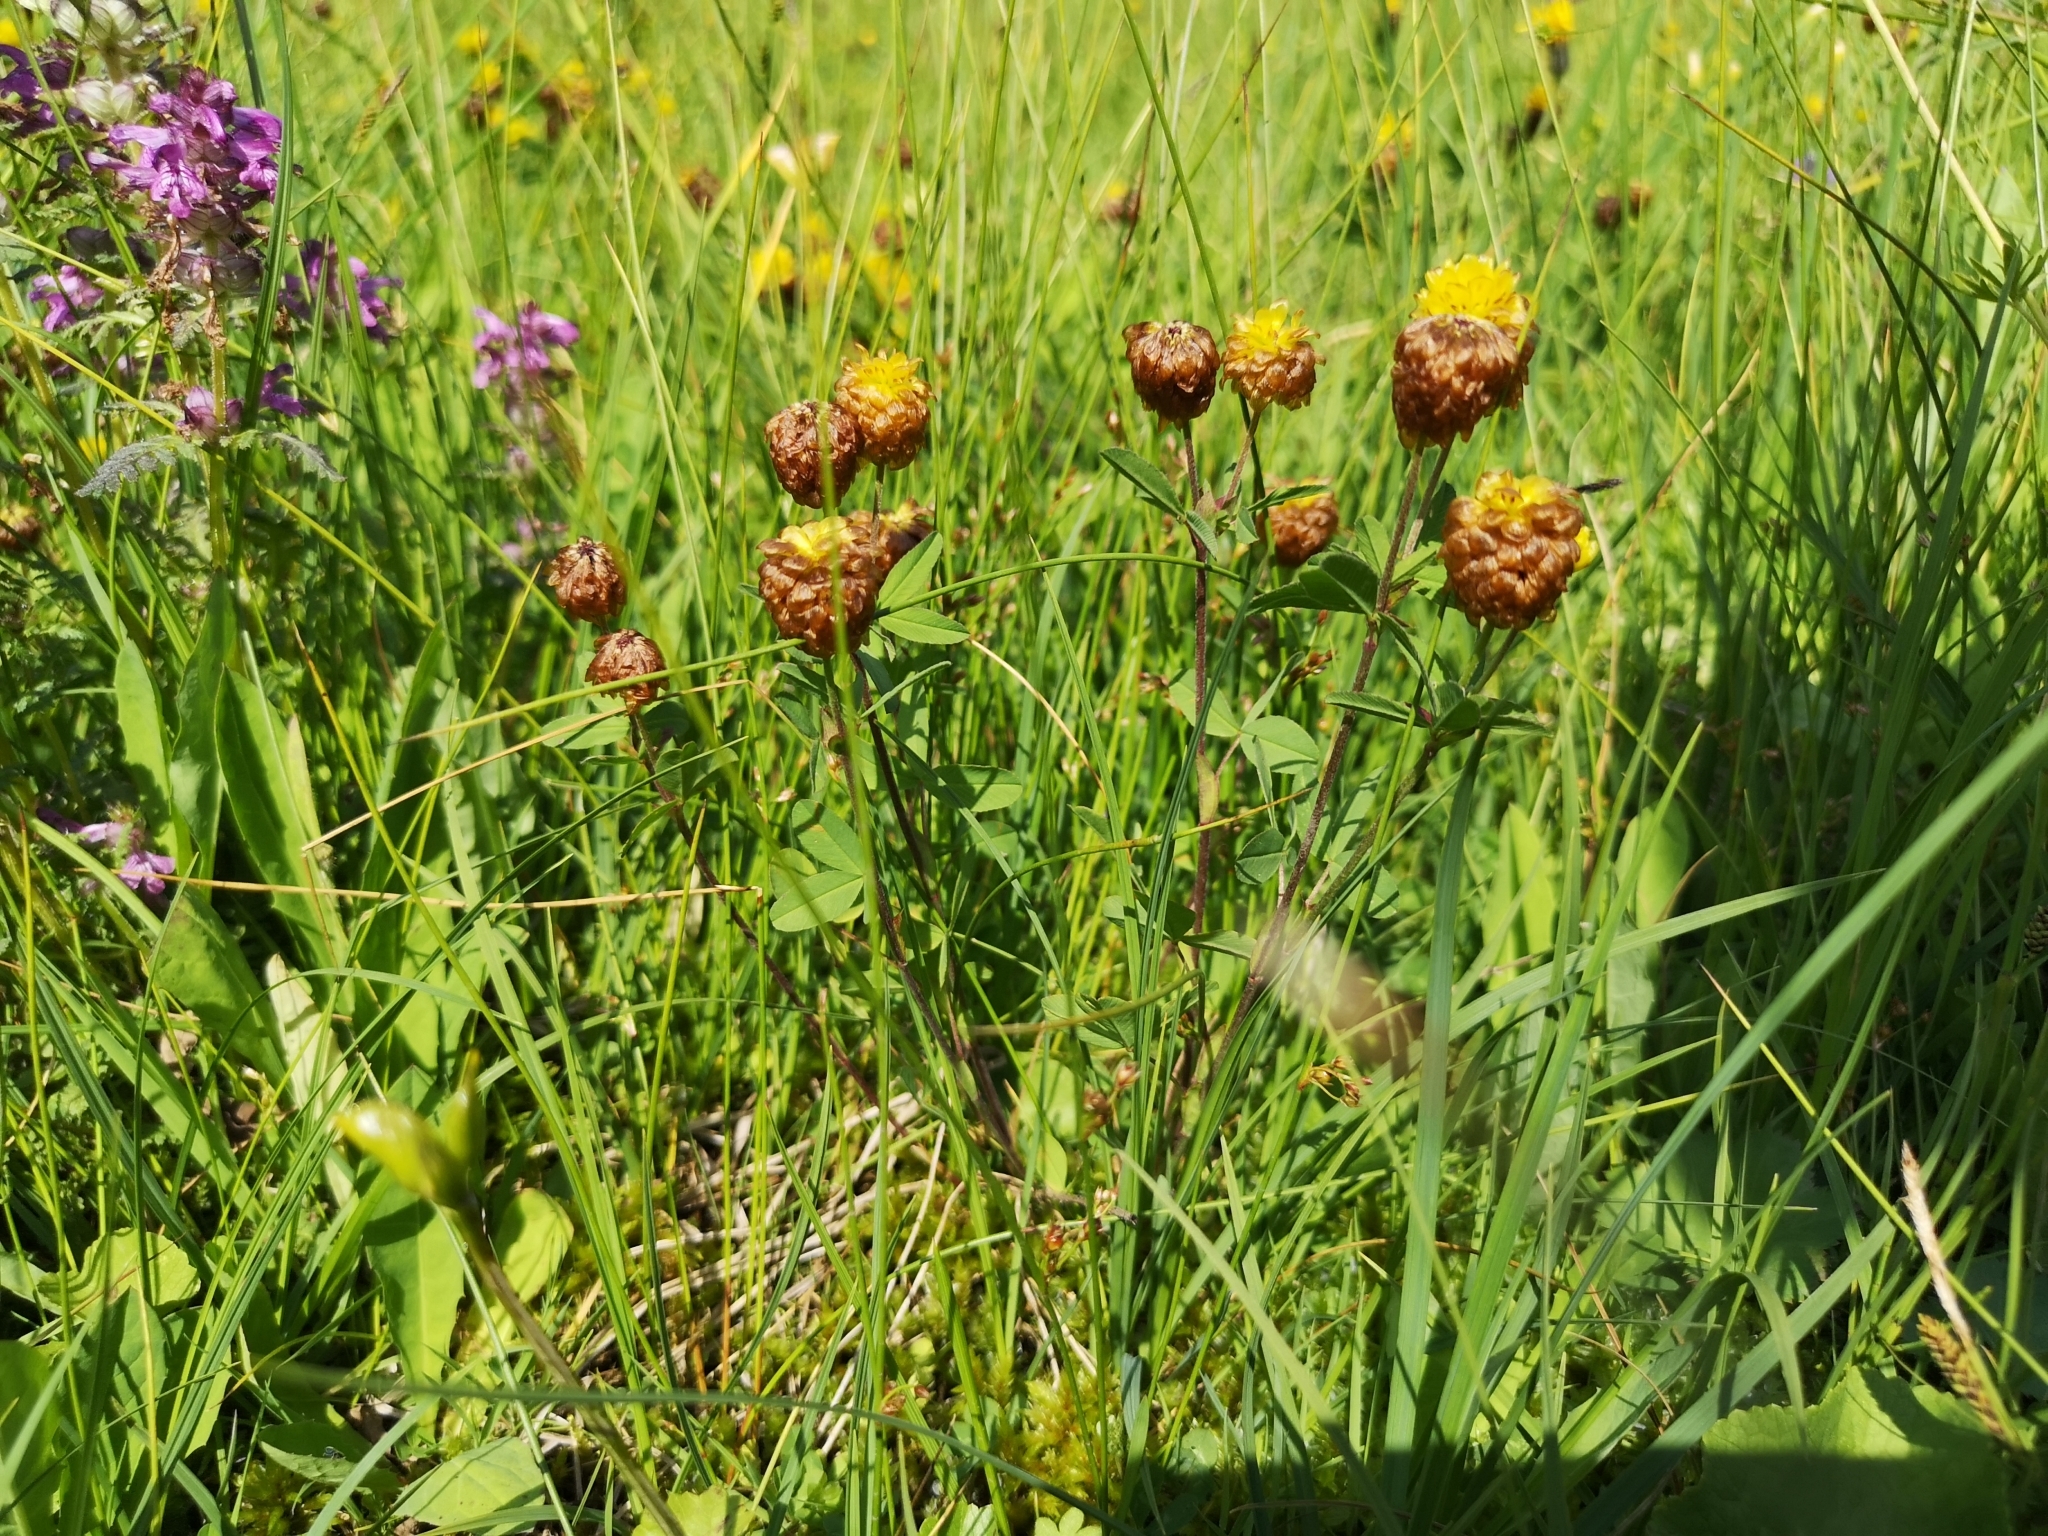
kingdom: Plantae
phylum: Tracheophyta
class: Magnoliopsida
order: Fabales
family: Fabaceae
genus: Trifolium
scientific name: Trifolium badium
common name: Brown clover
